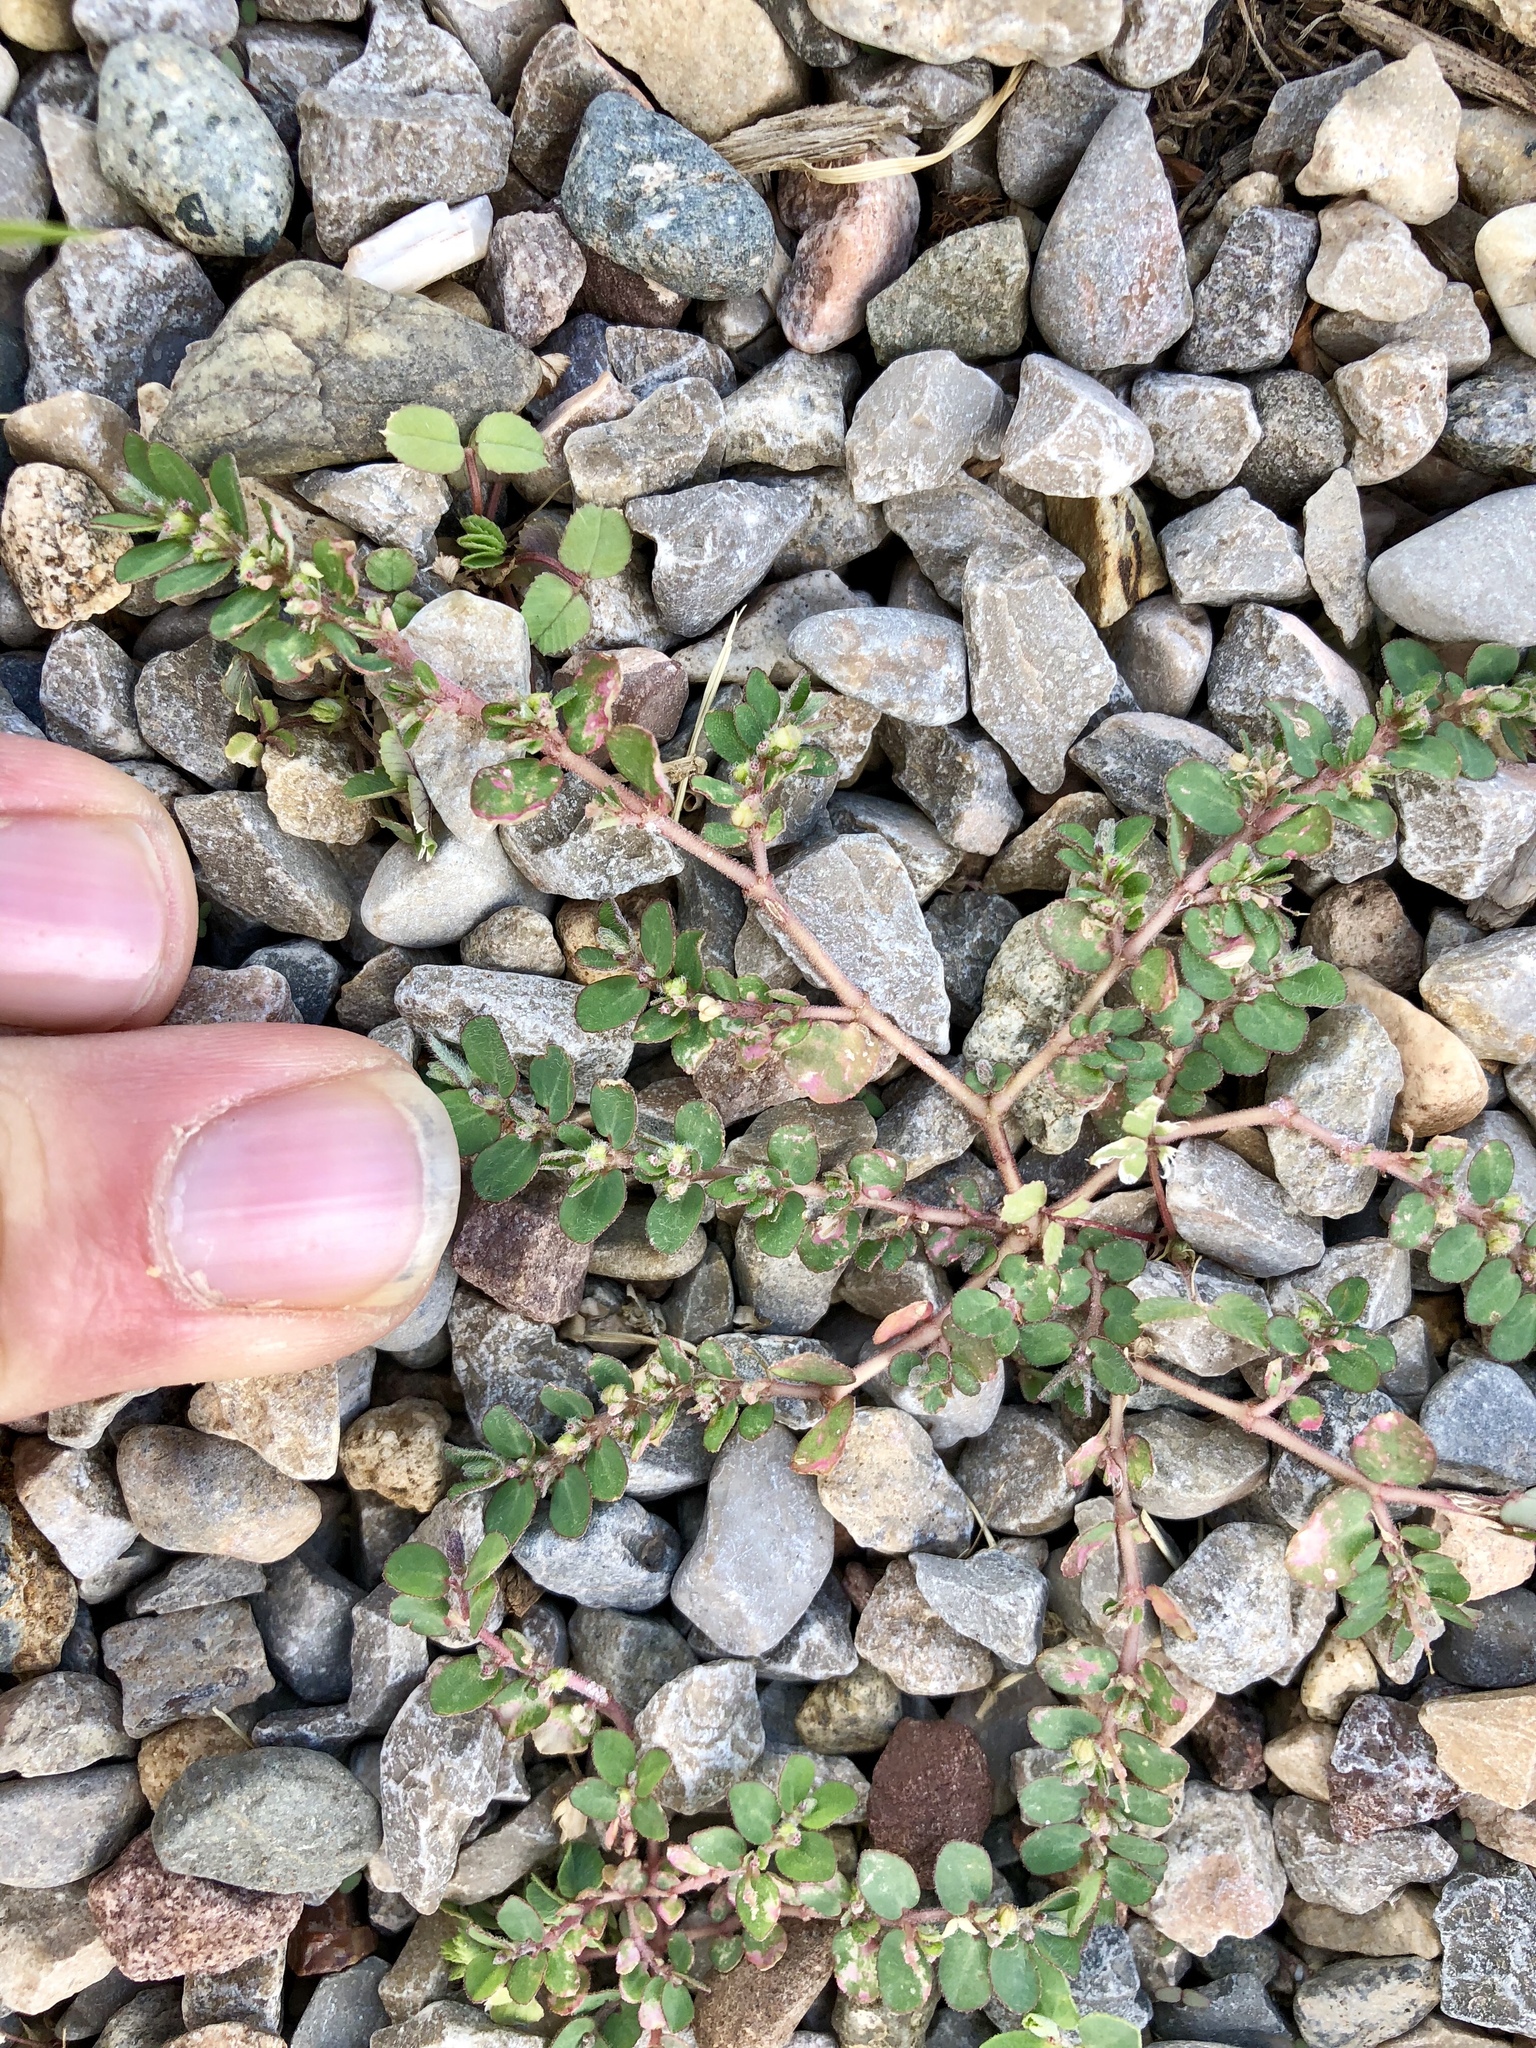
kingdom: Plantae
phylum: Tracheophyta
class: Magnoliopsida
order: Malpighiales
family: Euphorbiaceae
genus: Euphorbia
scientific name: Euphorbia prostrata
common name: Prostrate sandmat
